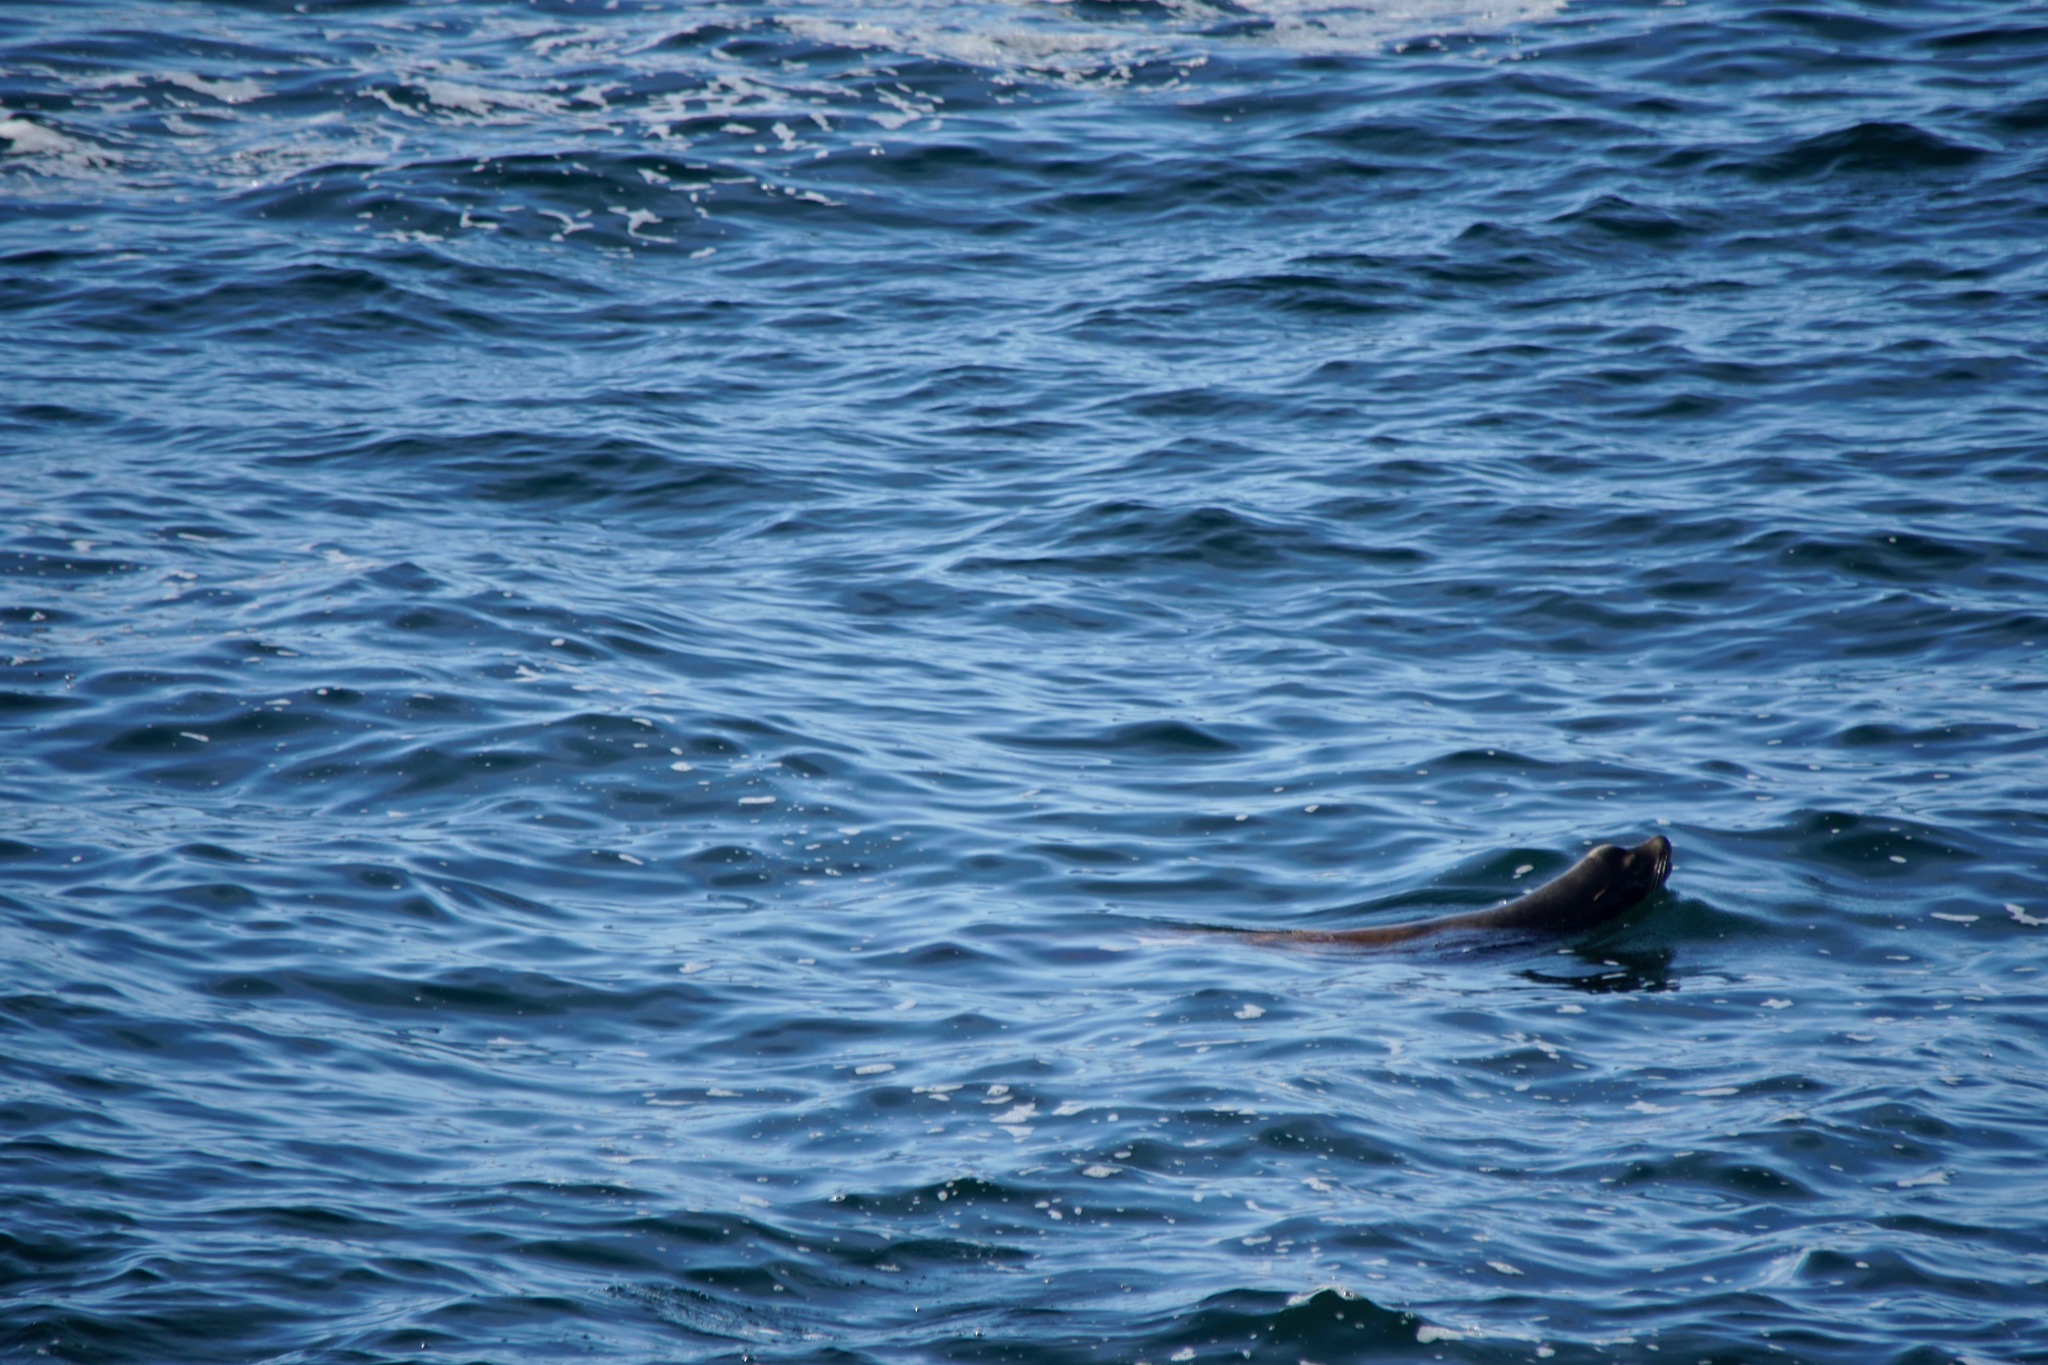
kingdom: Animalia
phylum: Chordata
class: Mammalia
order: Carnivora
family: Otariidae
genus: Zalophus
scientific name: Zalophus californianus
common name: California sea lion
